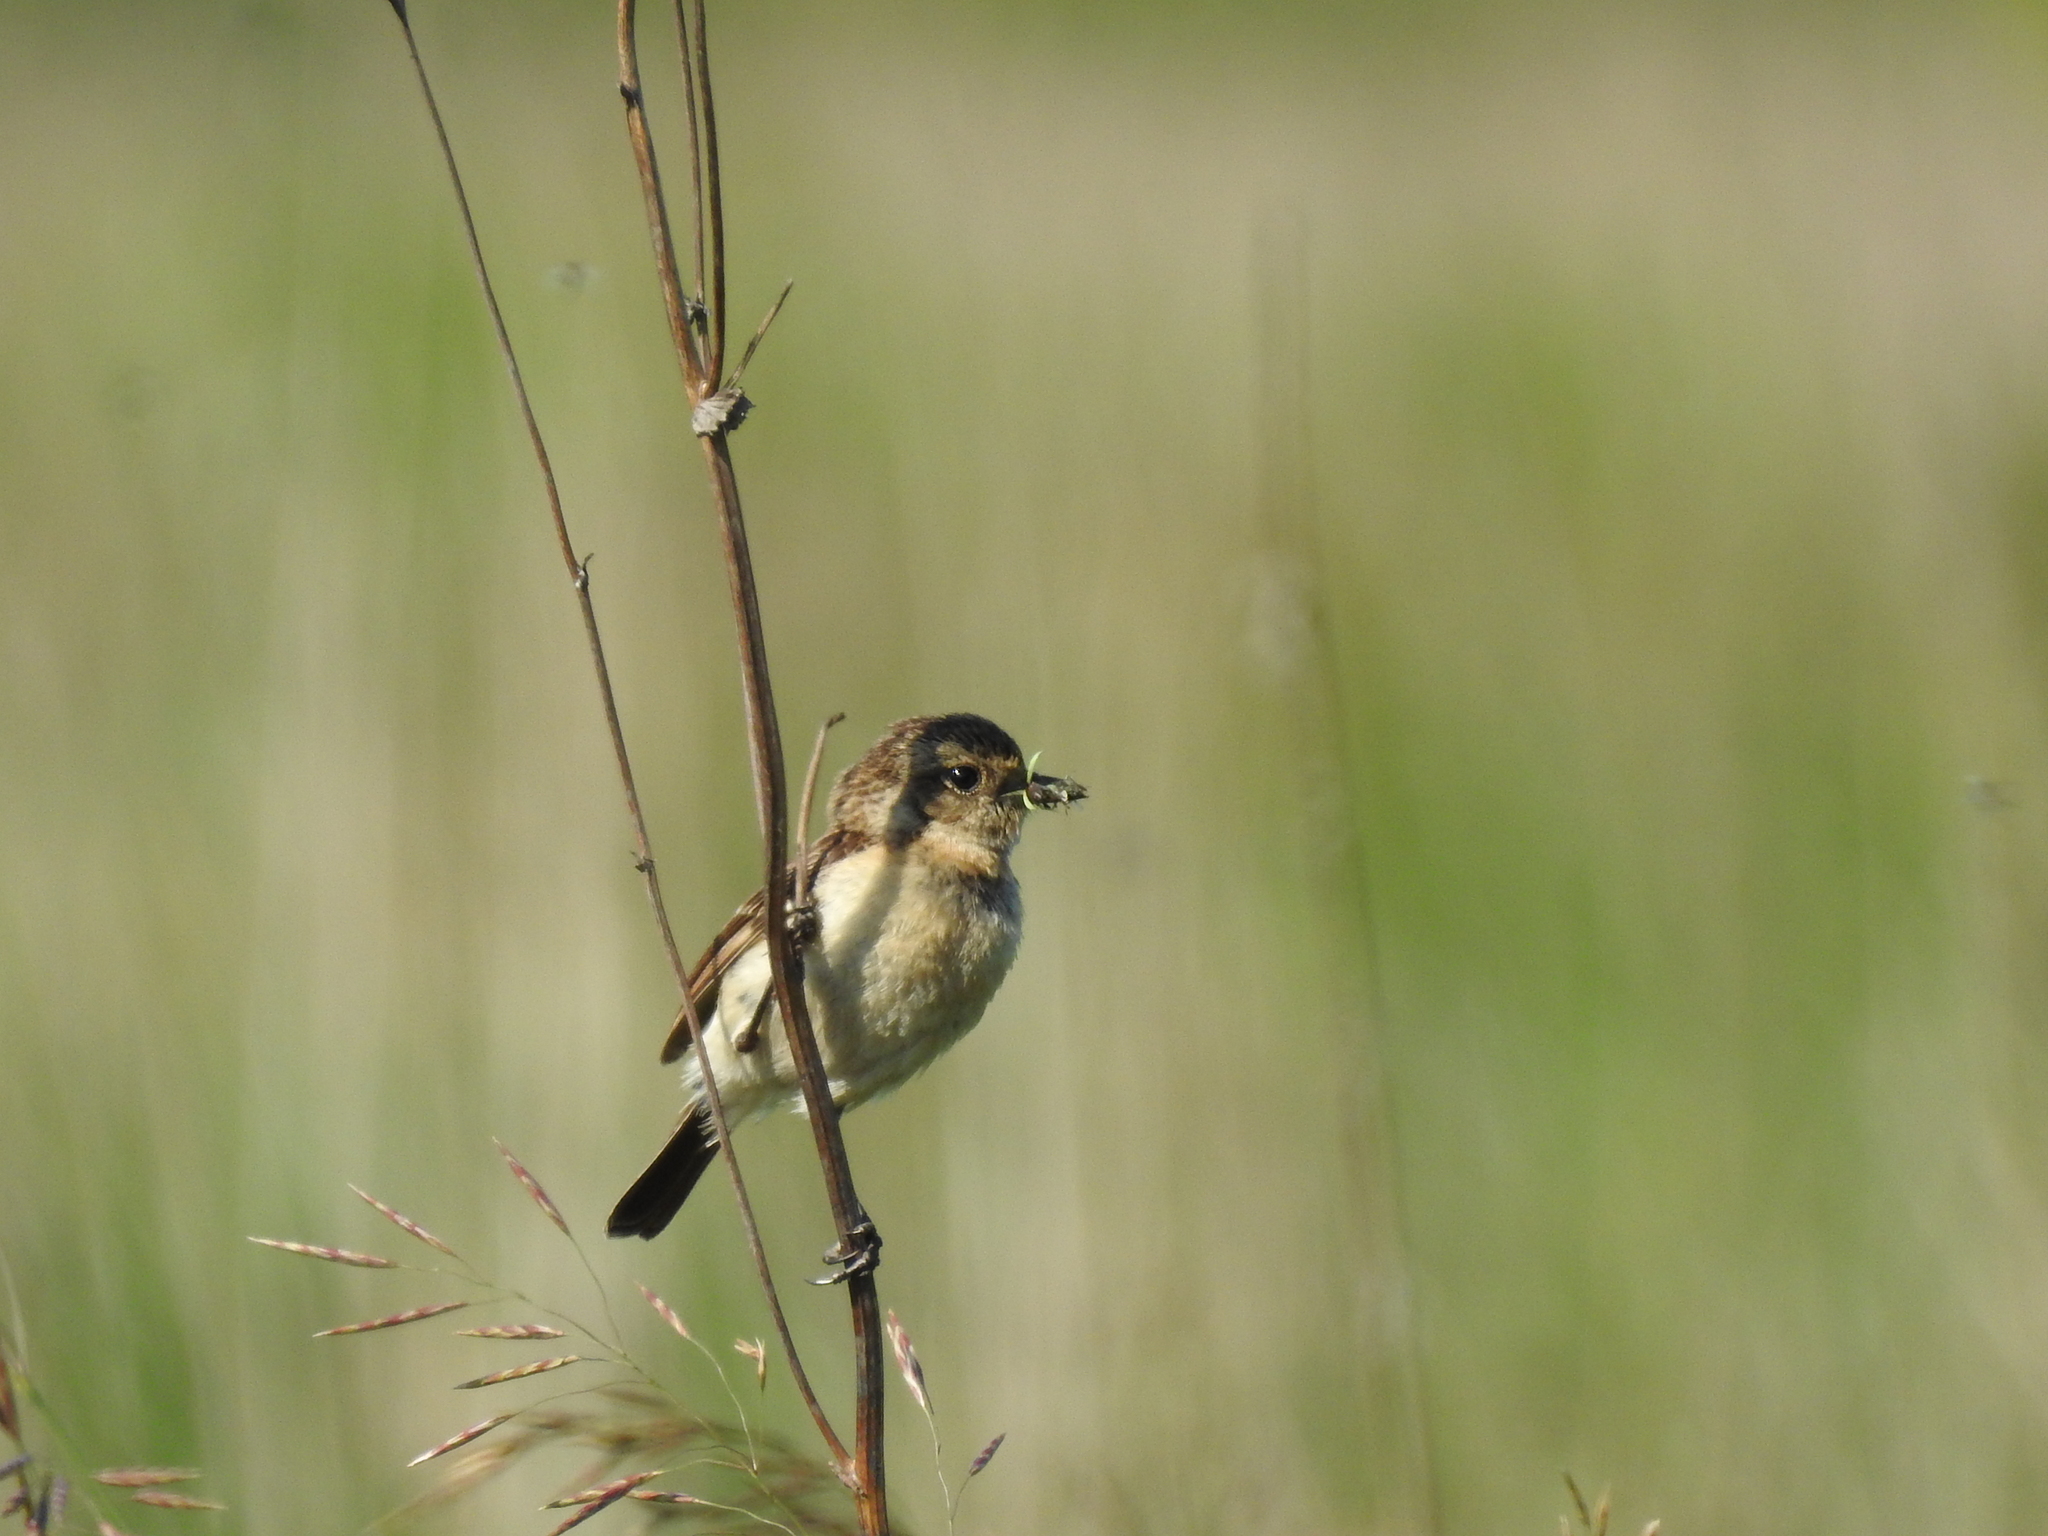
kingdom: Animalia
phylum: Chordata
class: Aves
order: Passeriformes
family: Muscicapidae
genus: Saxicola
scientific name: Saxicola maurus
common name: Siberian stonechat
